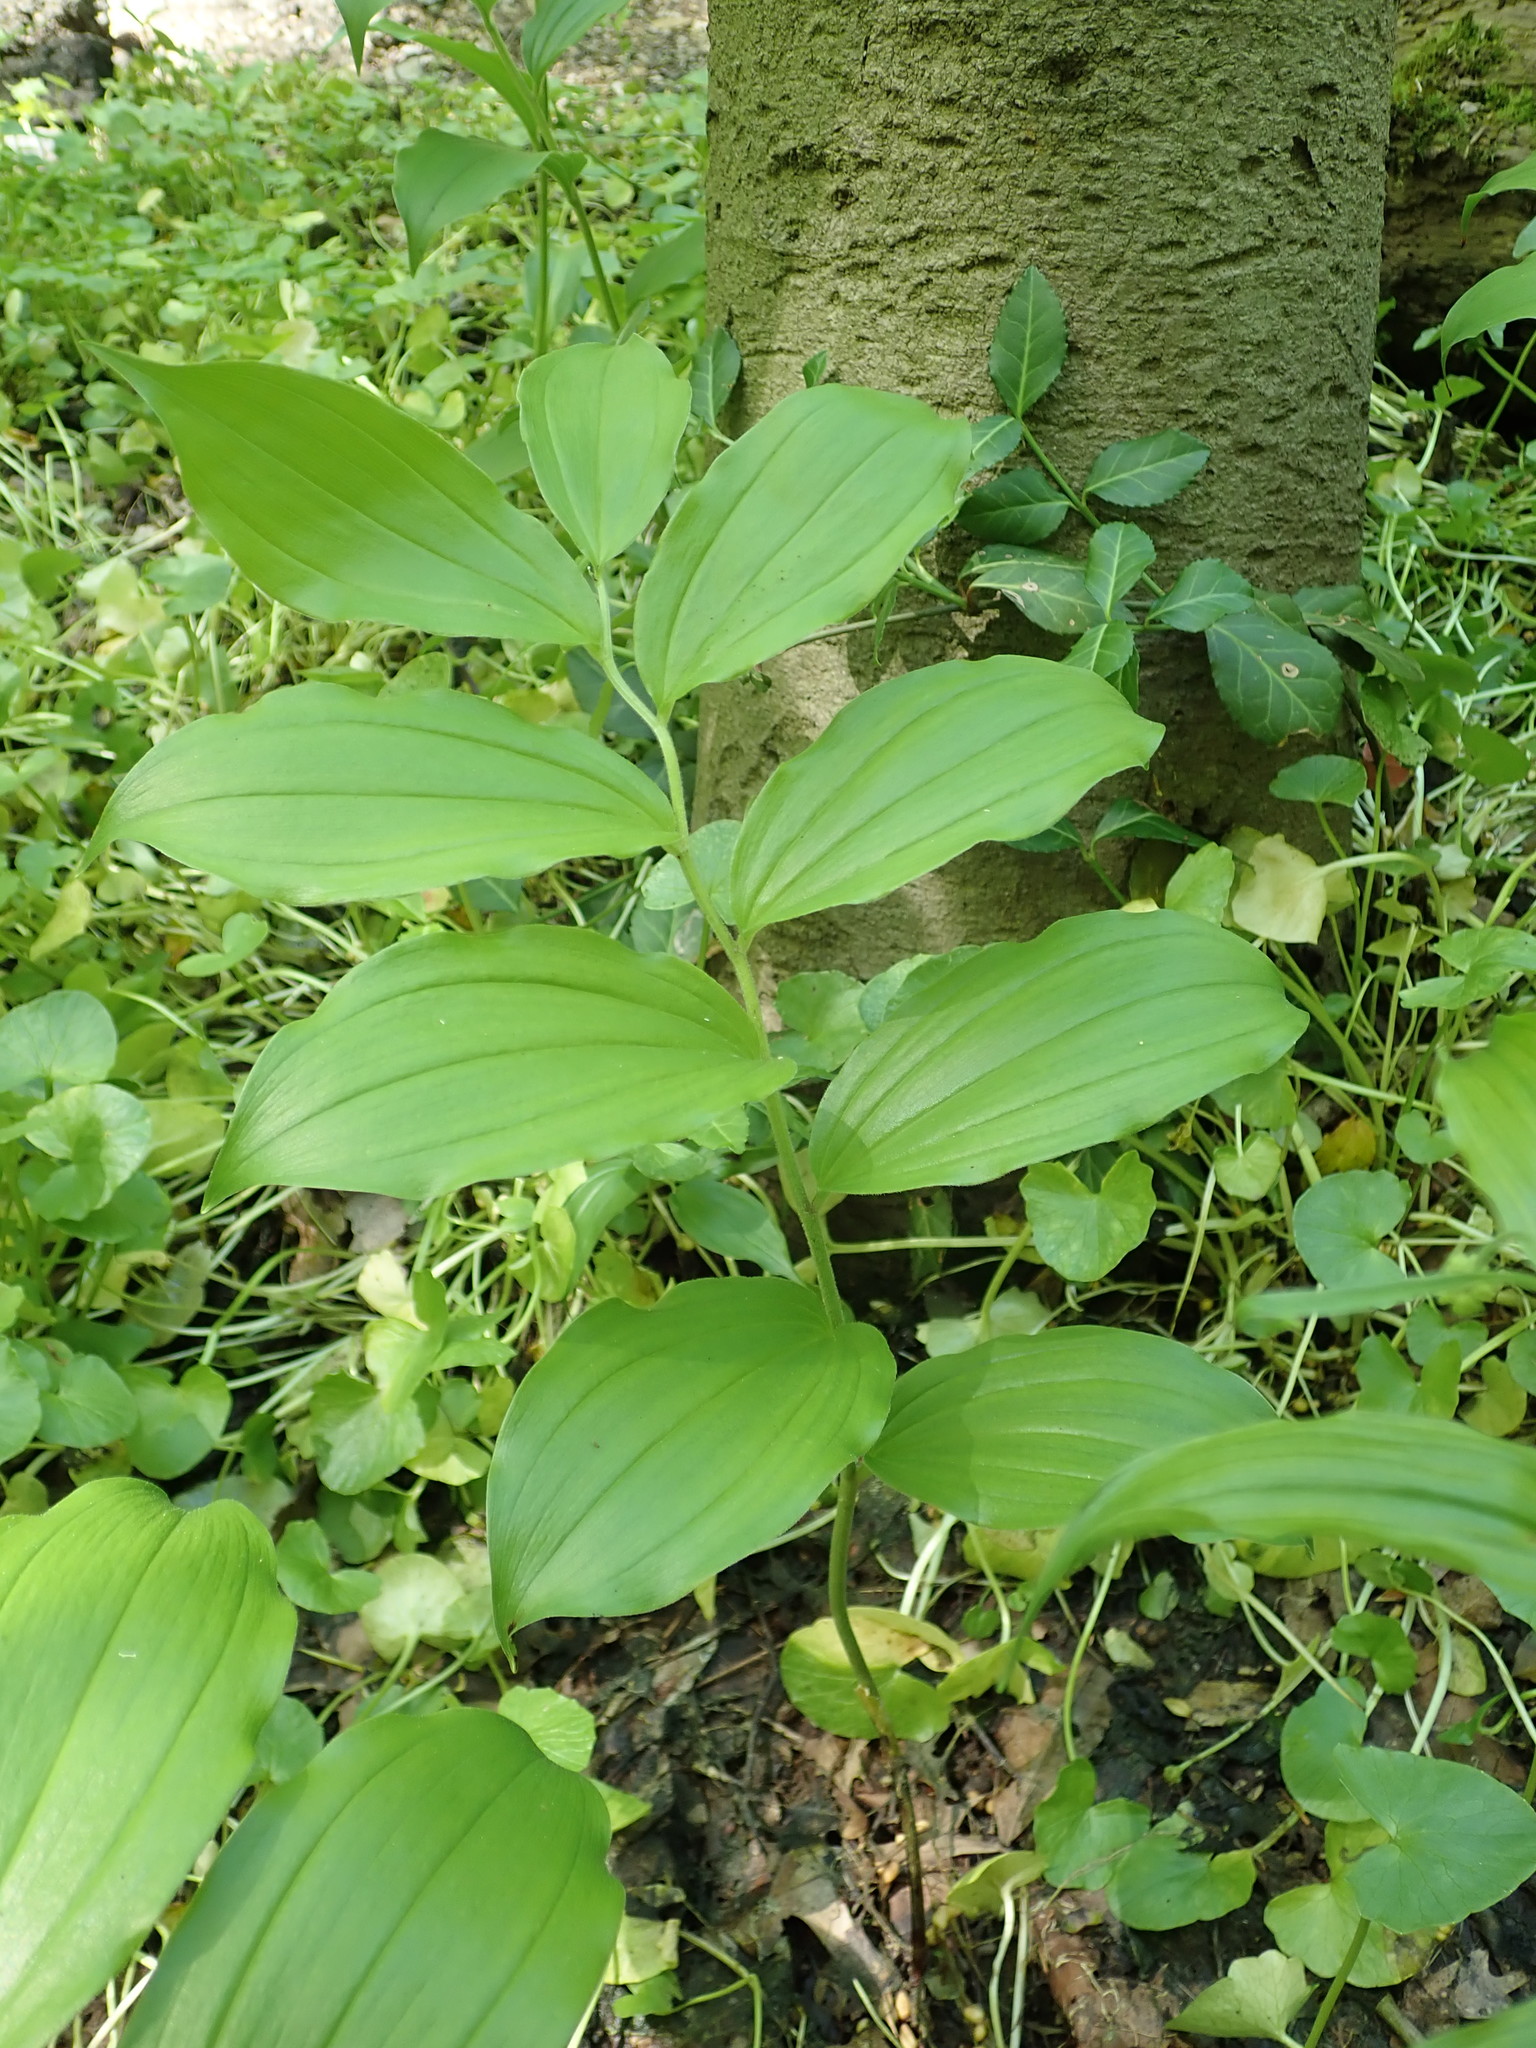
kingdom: Plantae
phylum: Tracheophyta
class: Liliopsida
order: Asparagales
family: Asparagaceae
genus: Maianthemum
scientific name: Maianthemum racemosum
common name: False spikenard
